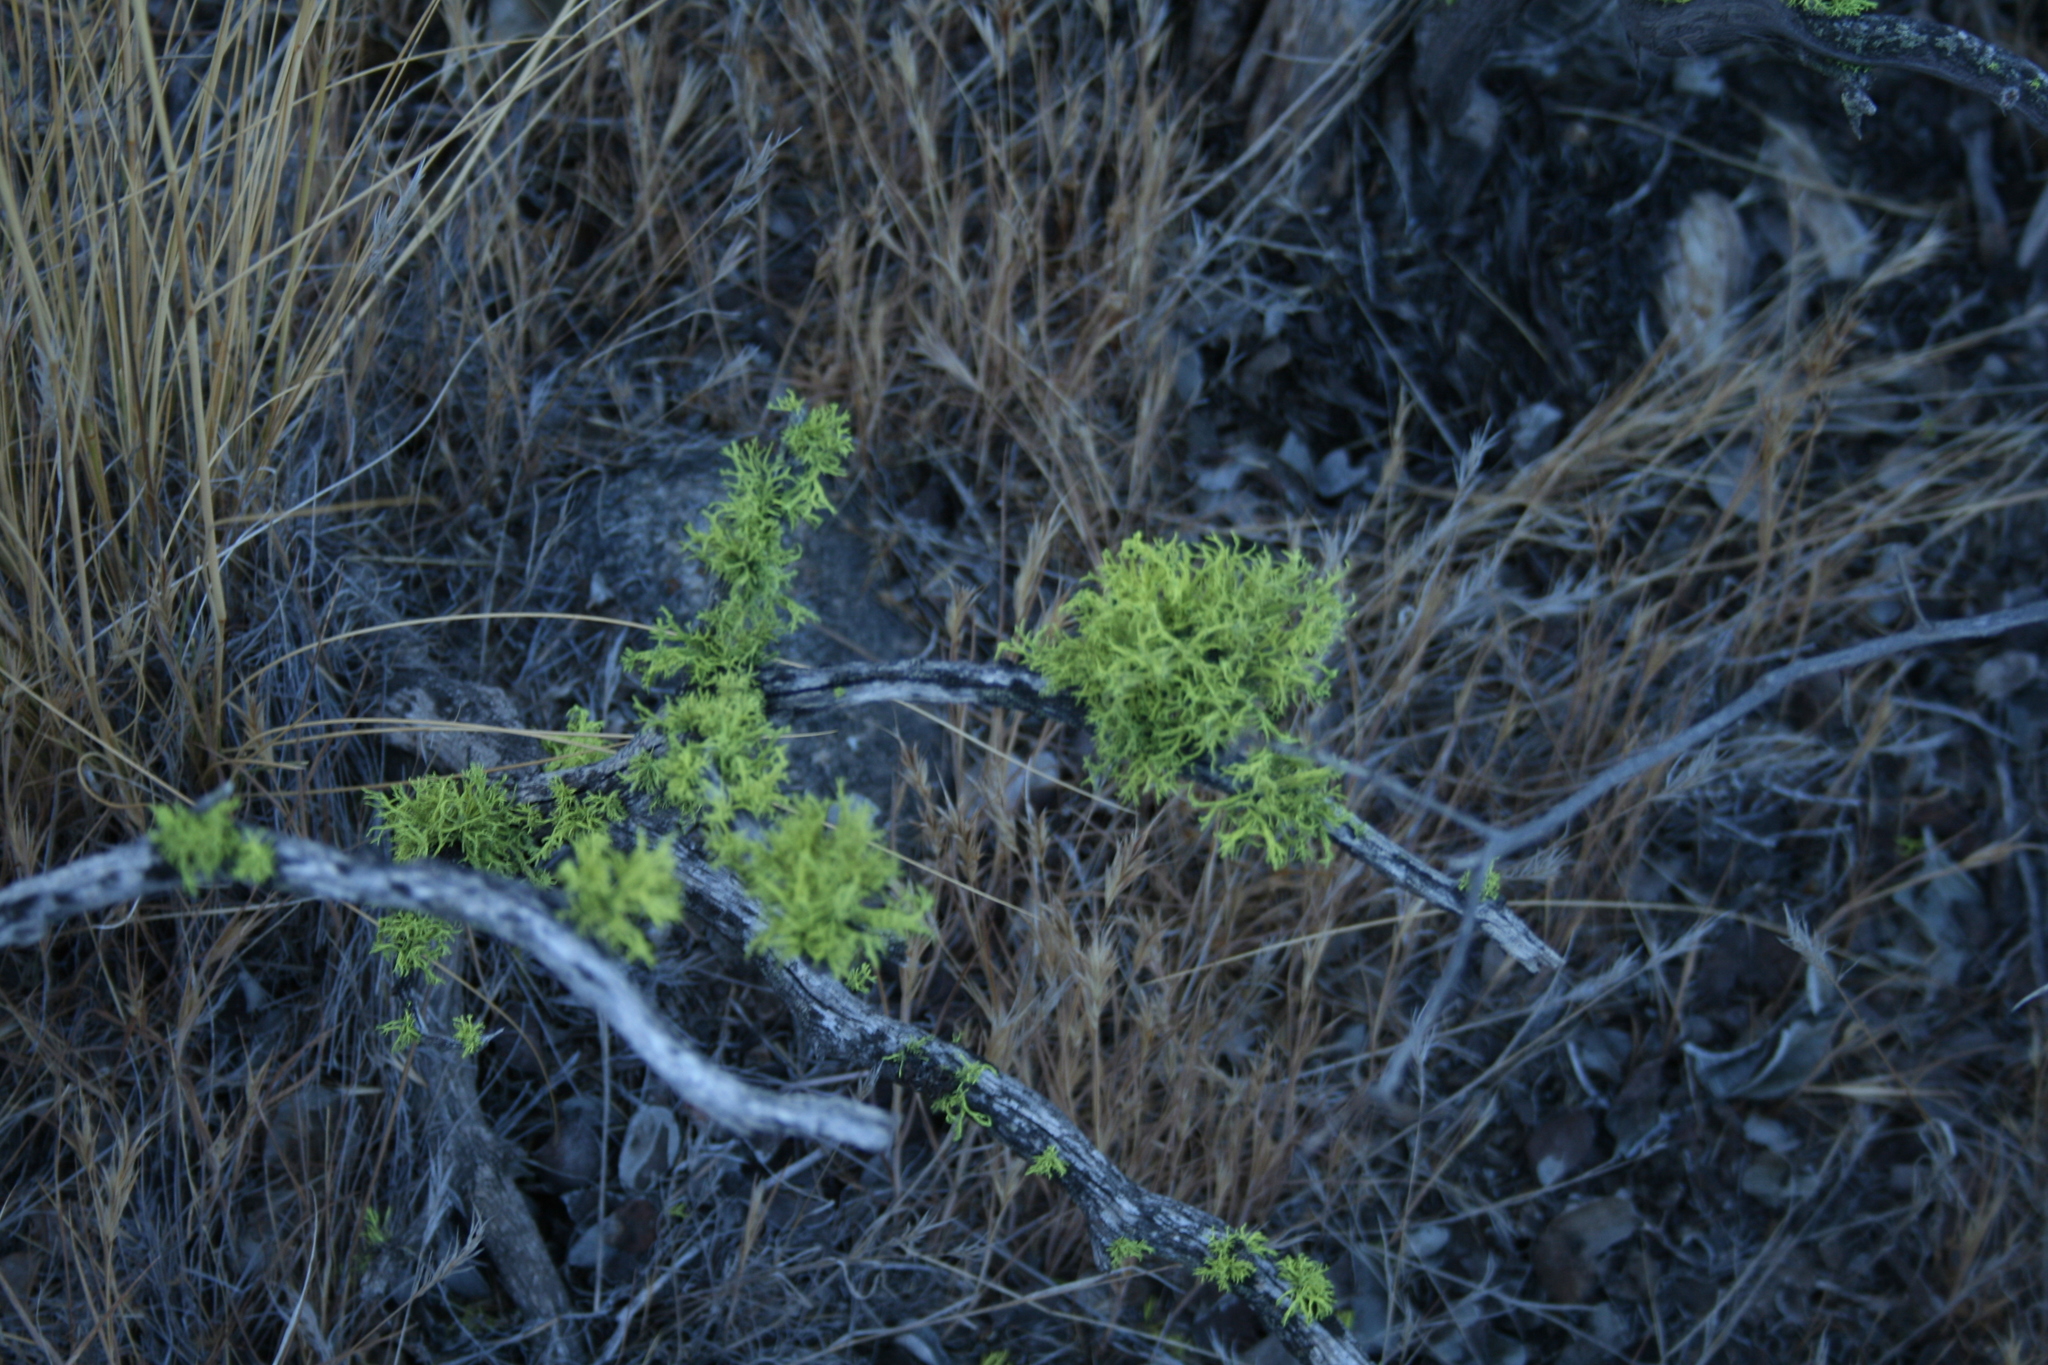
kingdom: Fungi
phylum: Ascomycota
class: Lecanoromycetes
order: Lecanorales
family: Parmeliaceae
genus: Letharia
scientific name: Letharia vulpina
